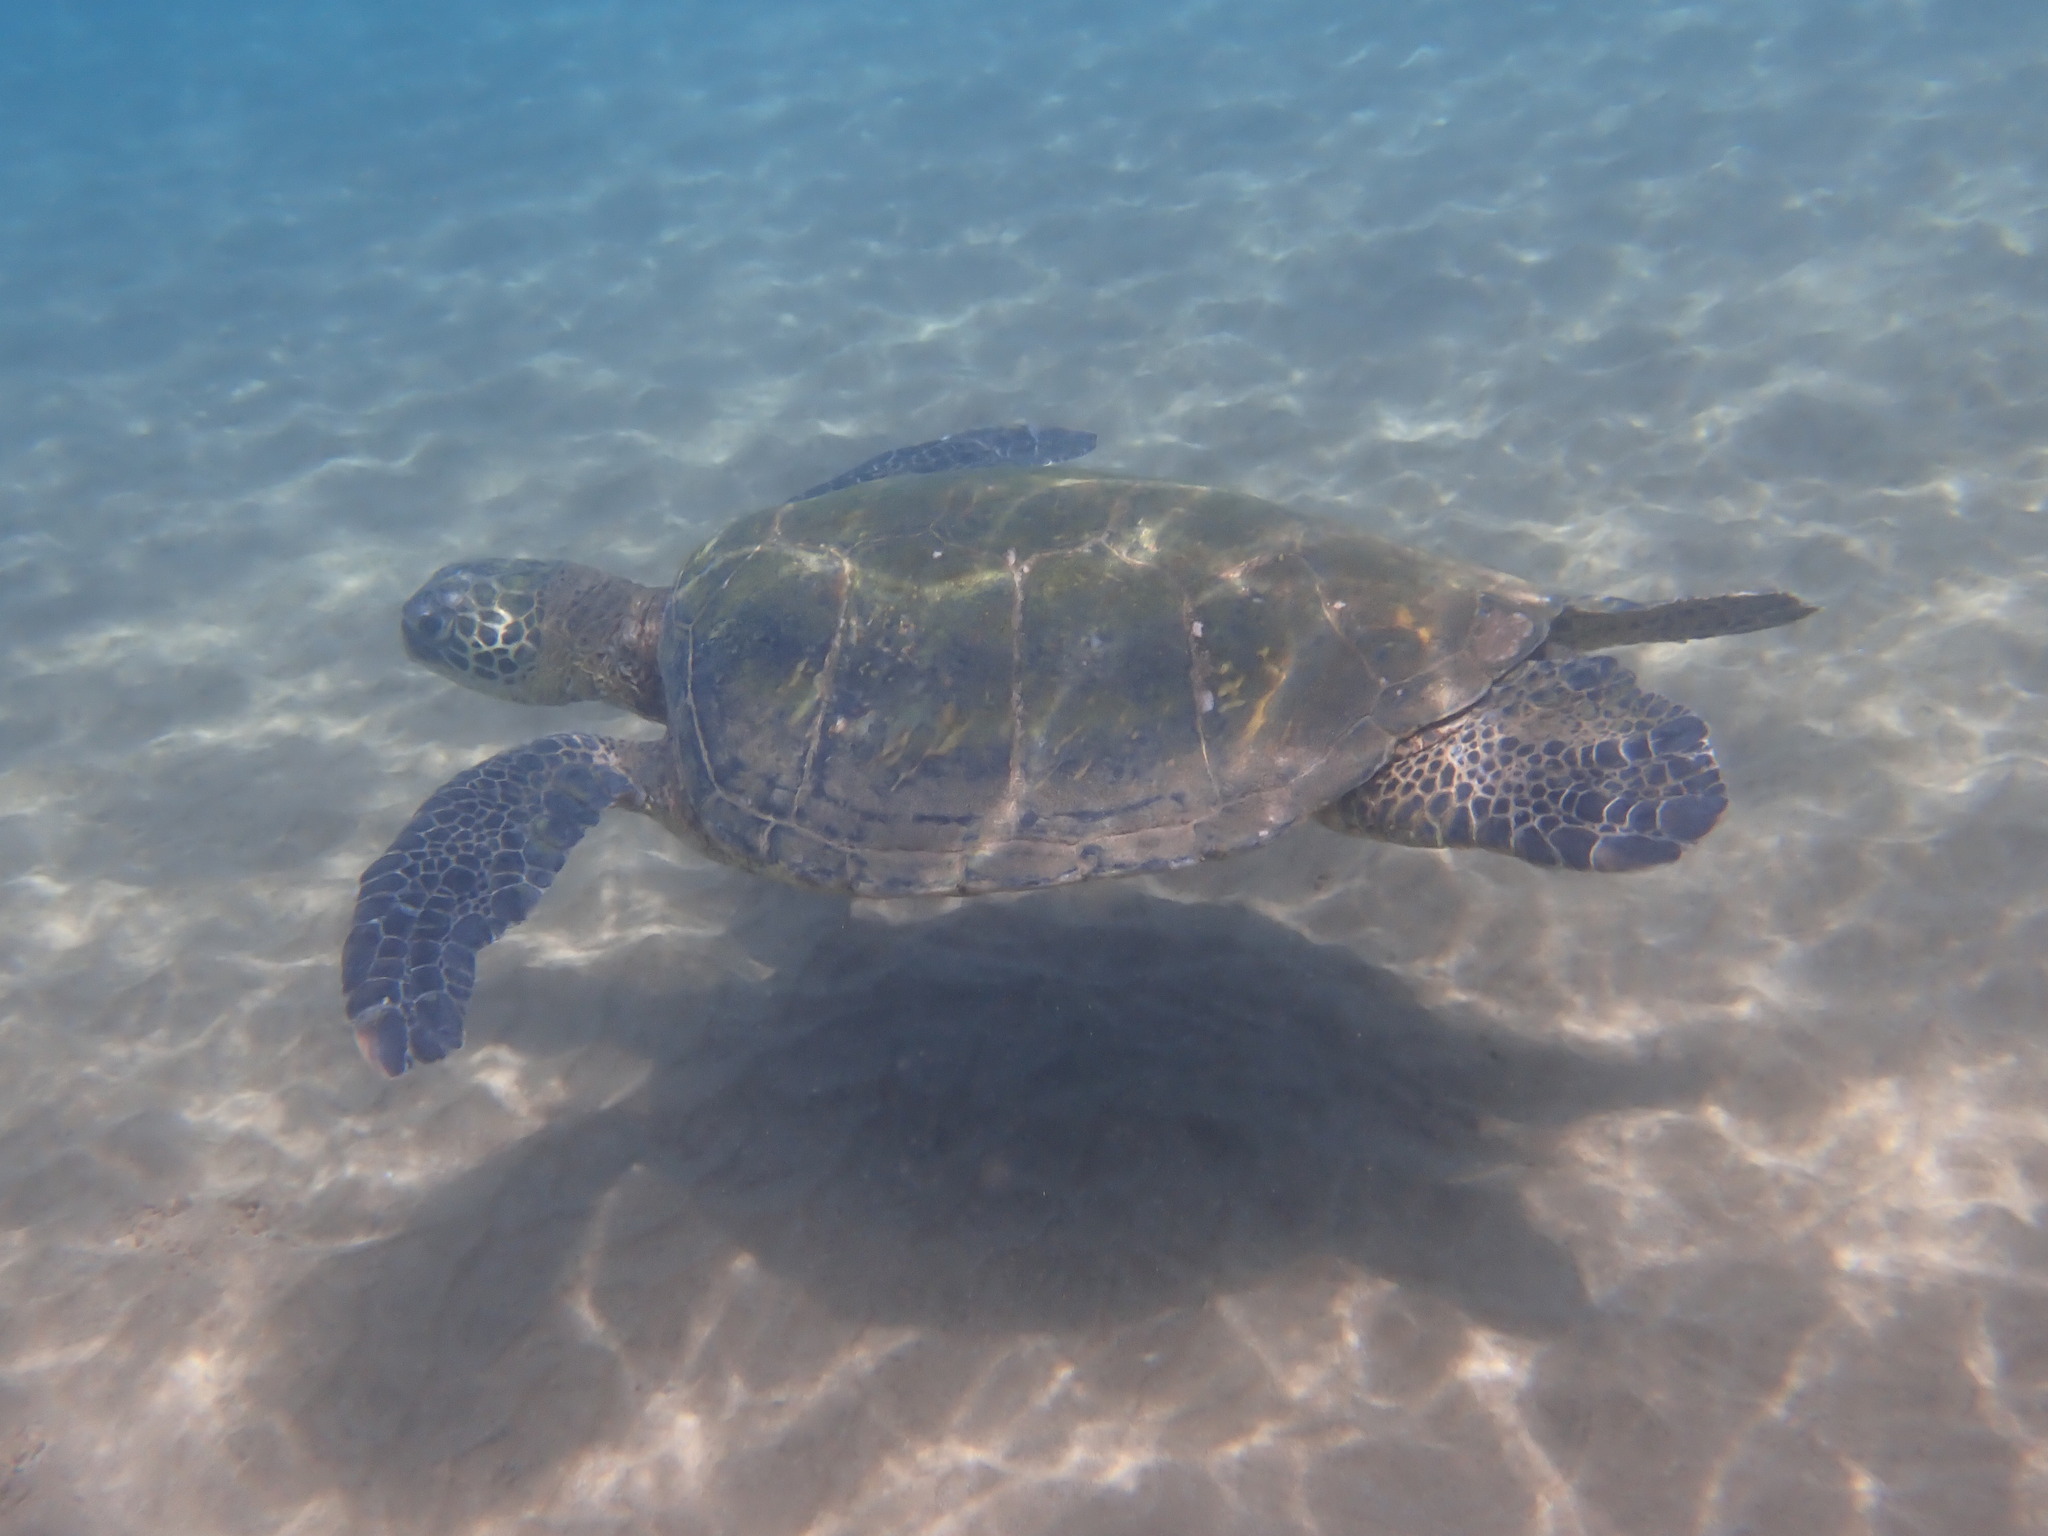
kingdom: Animalia
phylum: Chordata
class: Testudines
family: Cheloniidae
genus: Chelonia
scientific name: Chelonia mydas
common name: Green turtle
